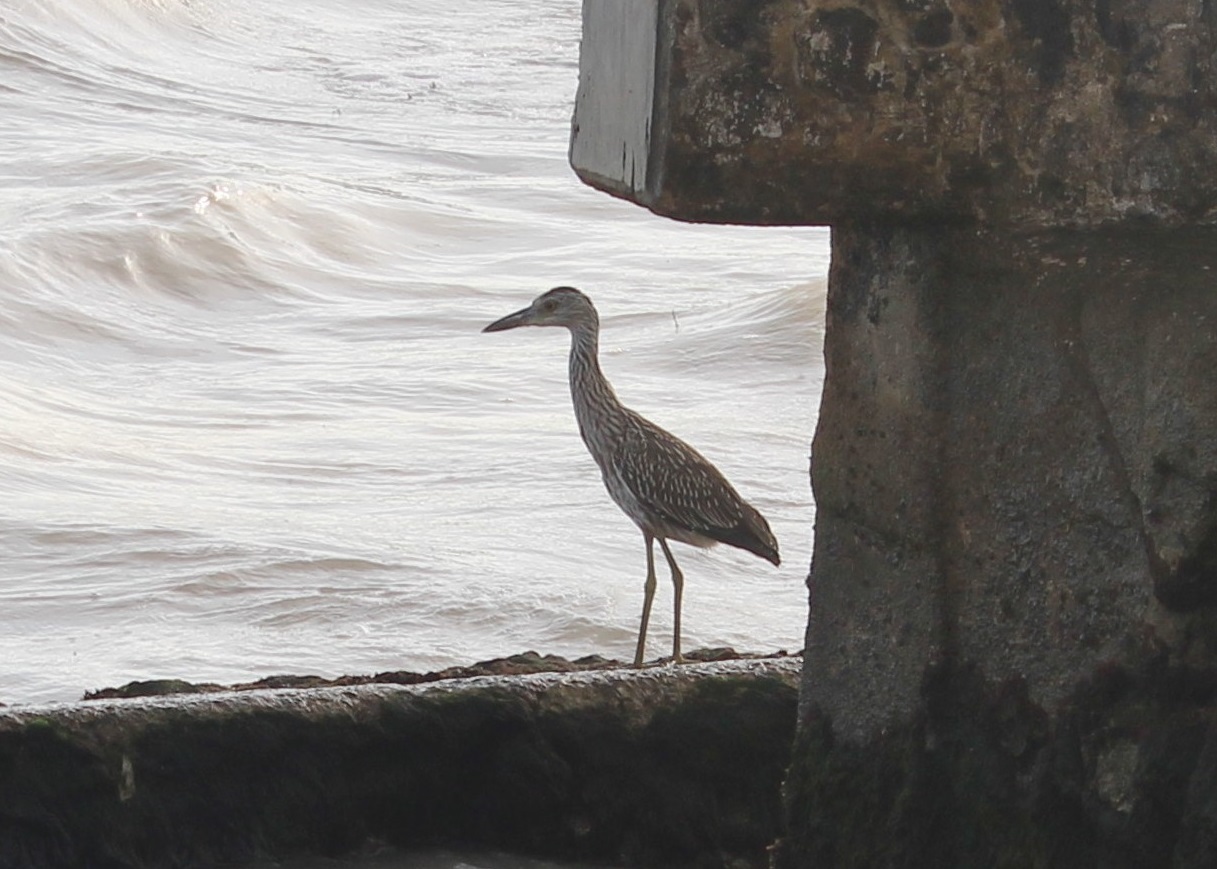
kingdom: Animalia
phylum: Chordata
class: Aves
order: Pelecaniformes
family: Ardeidae
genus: Nyctanassa
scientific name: Nyctanassa violacea
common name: Yellow-crowned night heron
